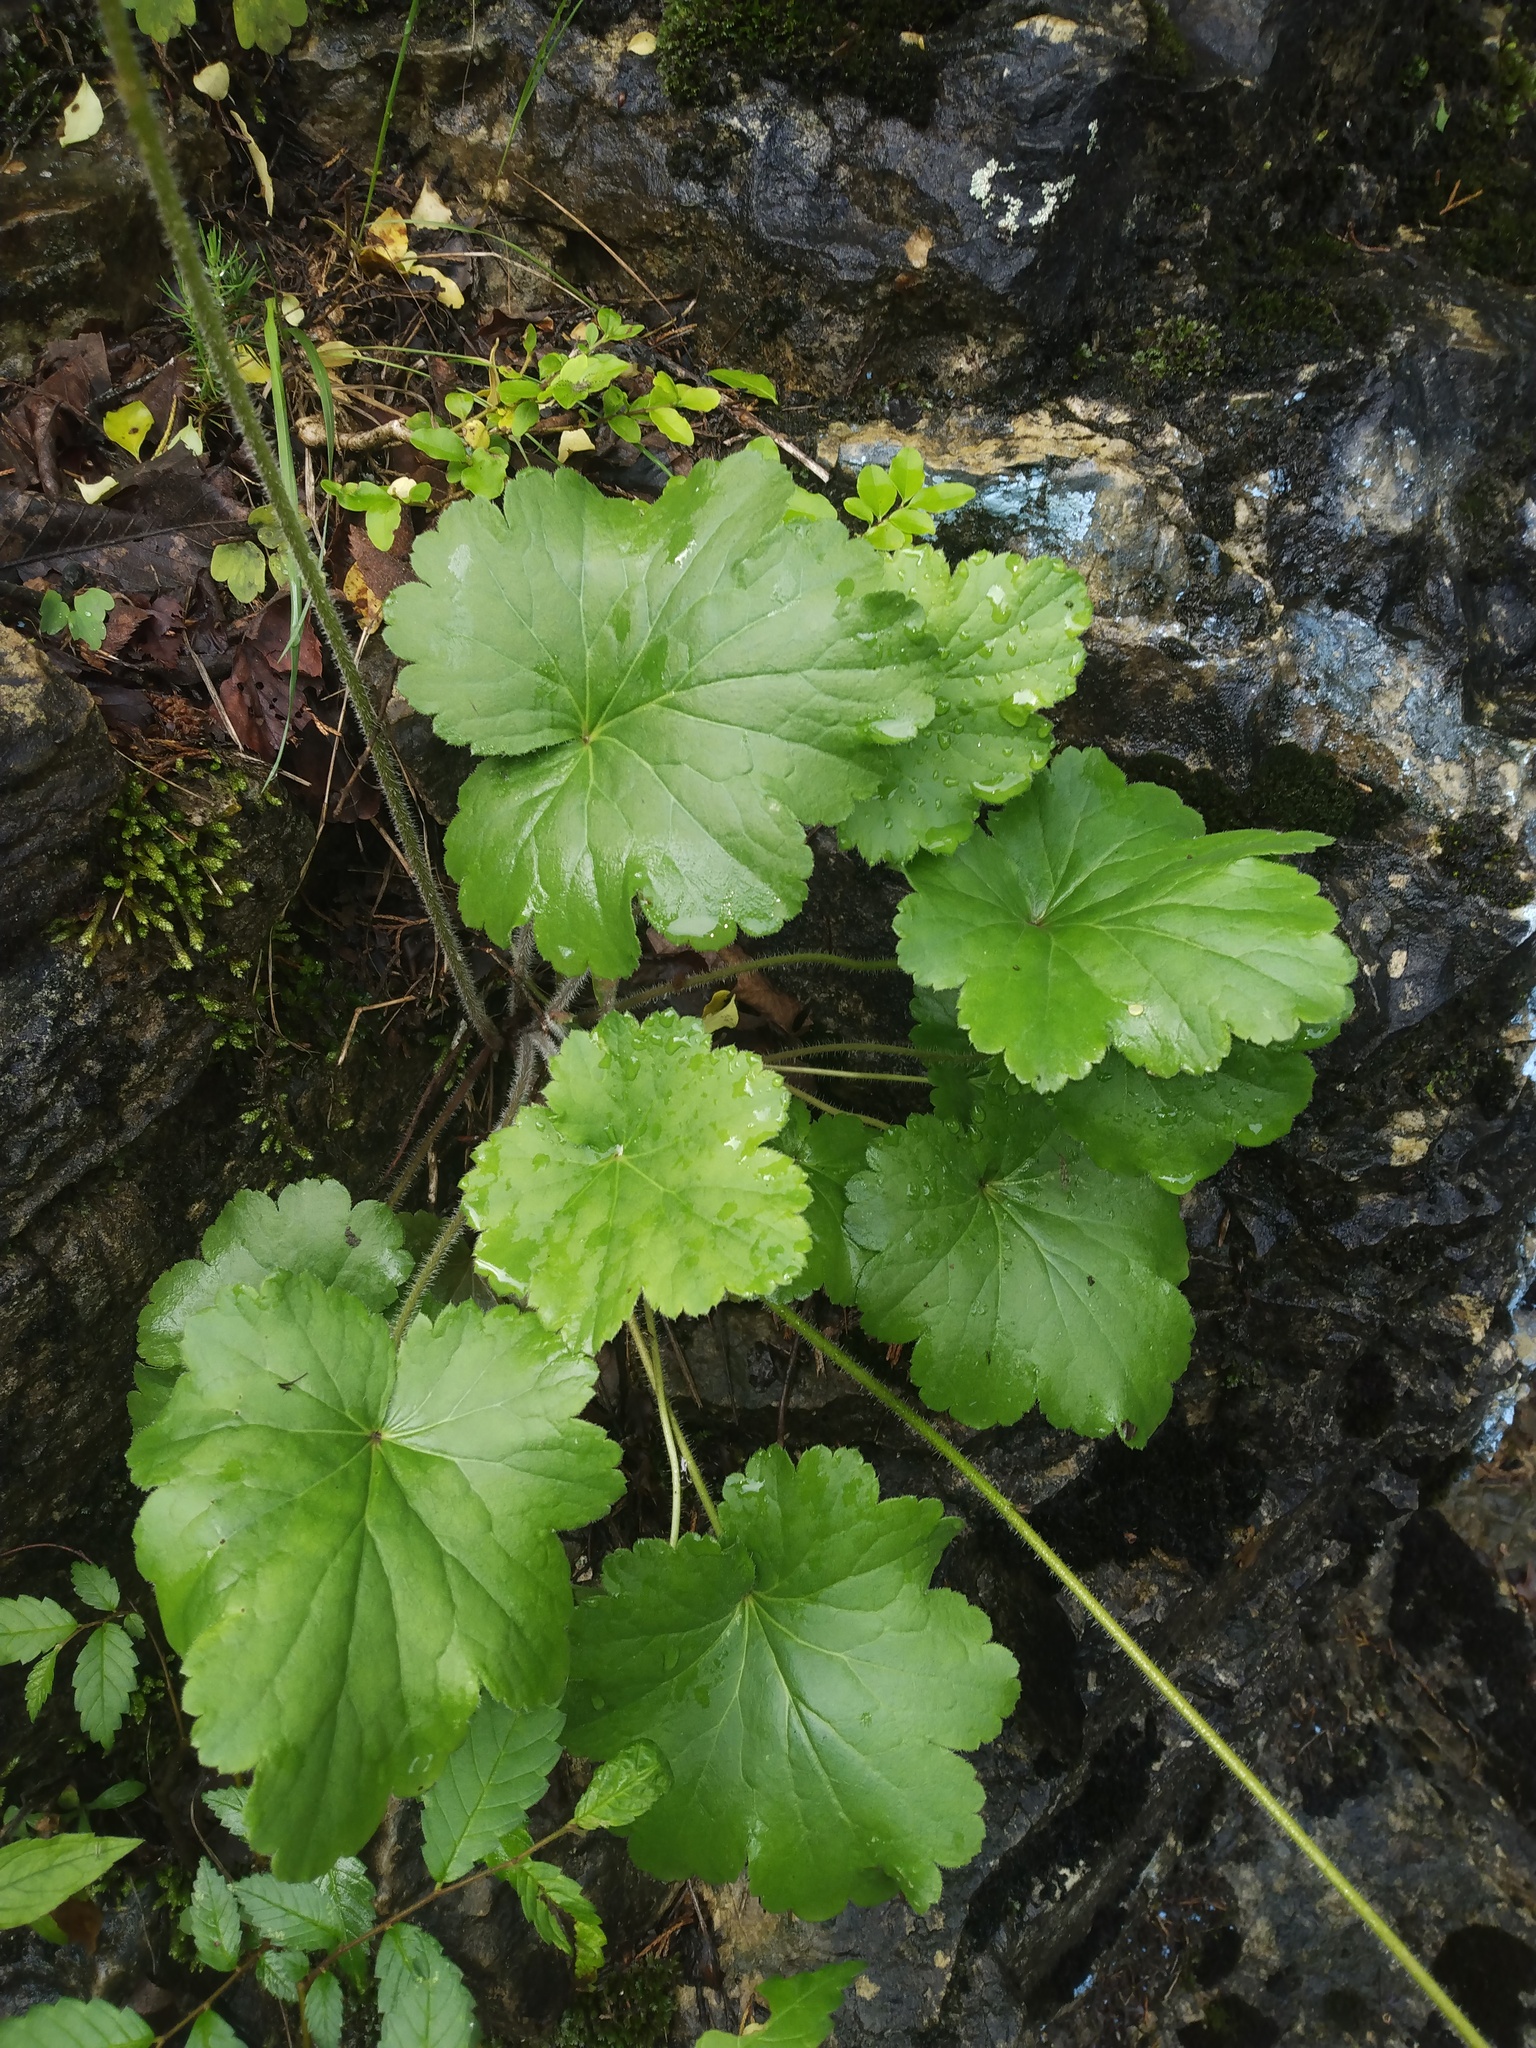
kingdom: Plantae
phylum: Tracheophyta
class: Magnoliopsida
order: Saxifragales
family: Saxifragaceae
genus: Heuchera
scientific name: Heuchera americana
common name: Alumroot
